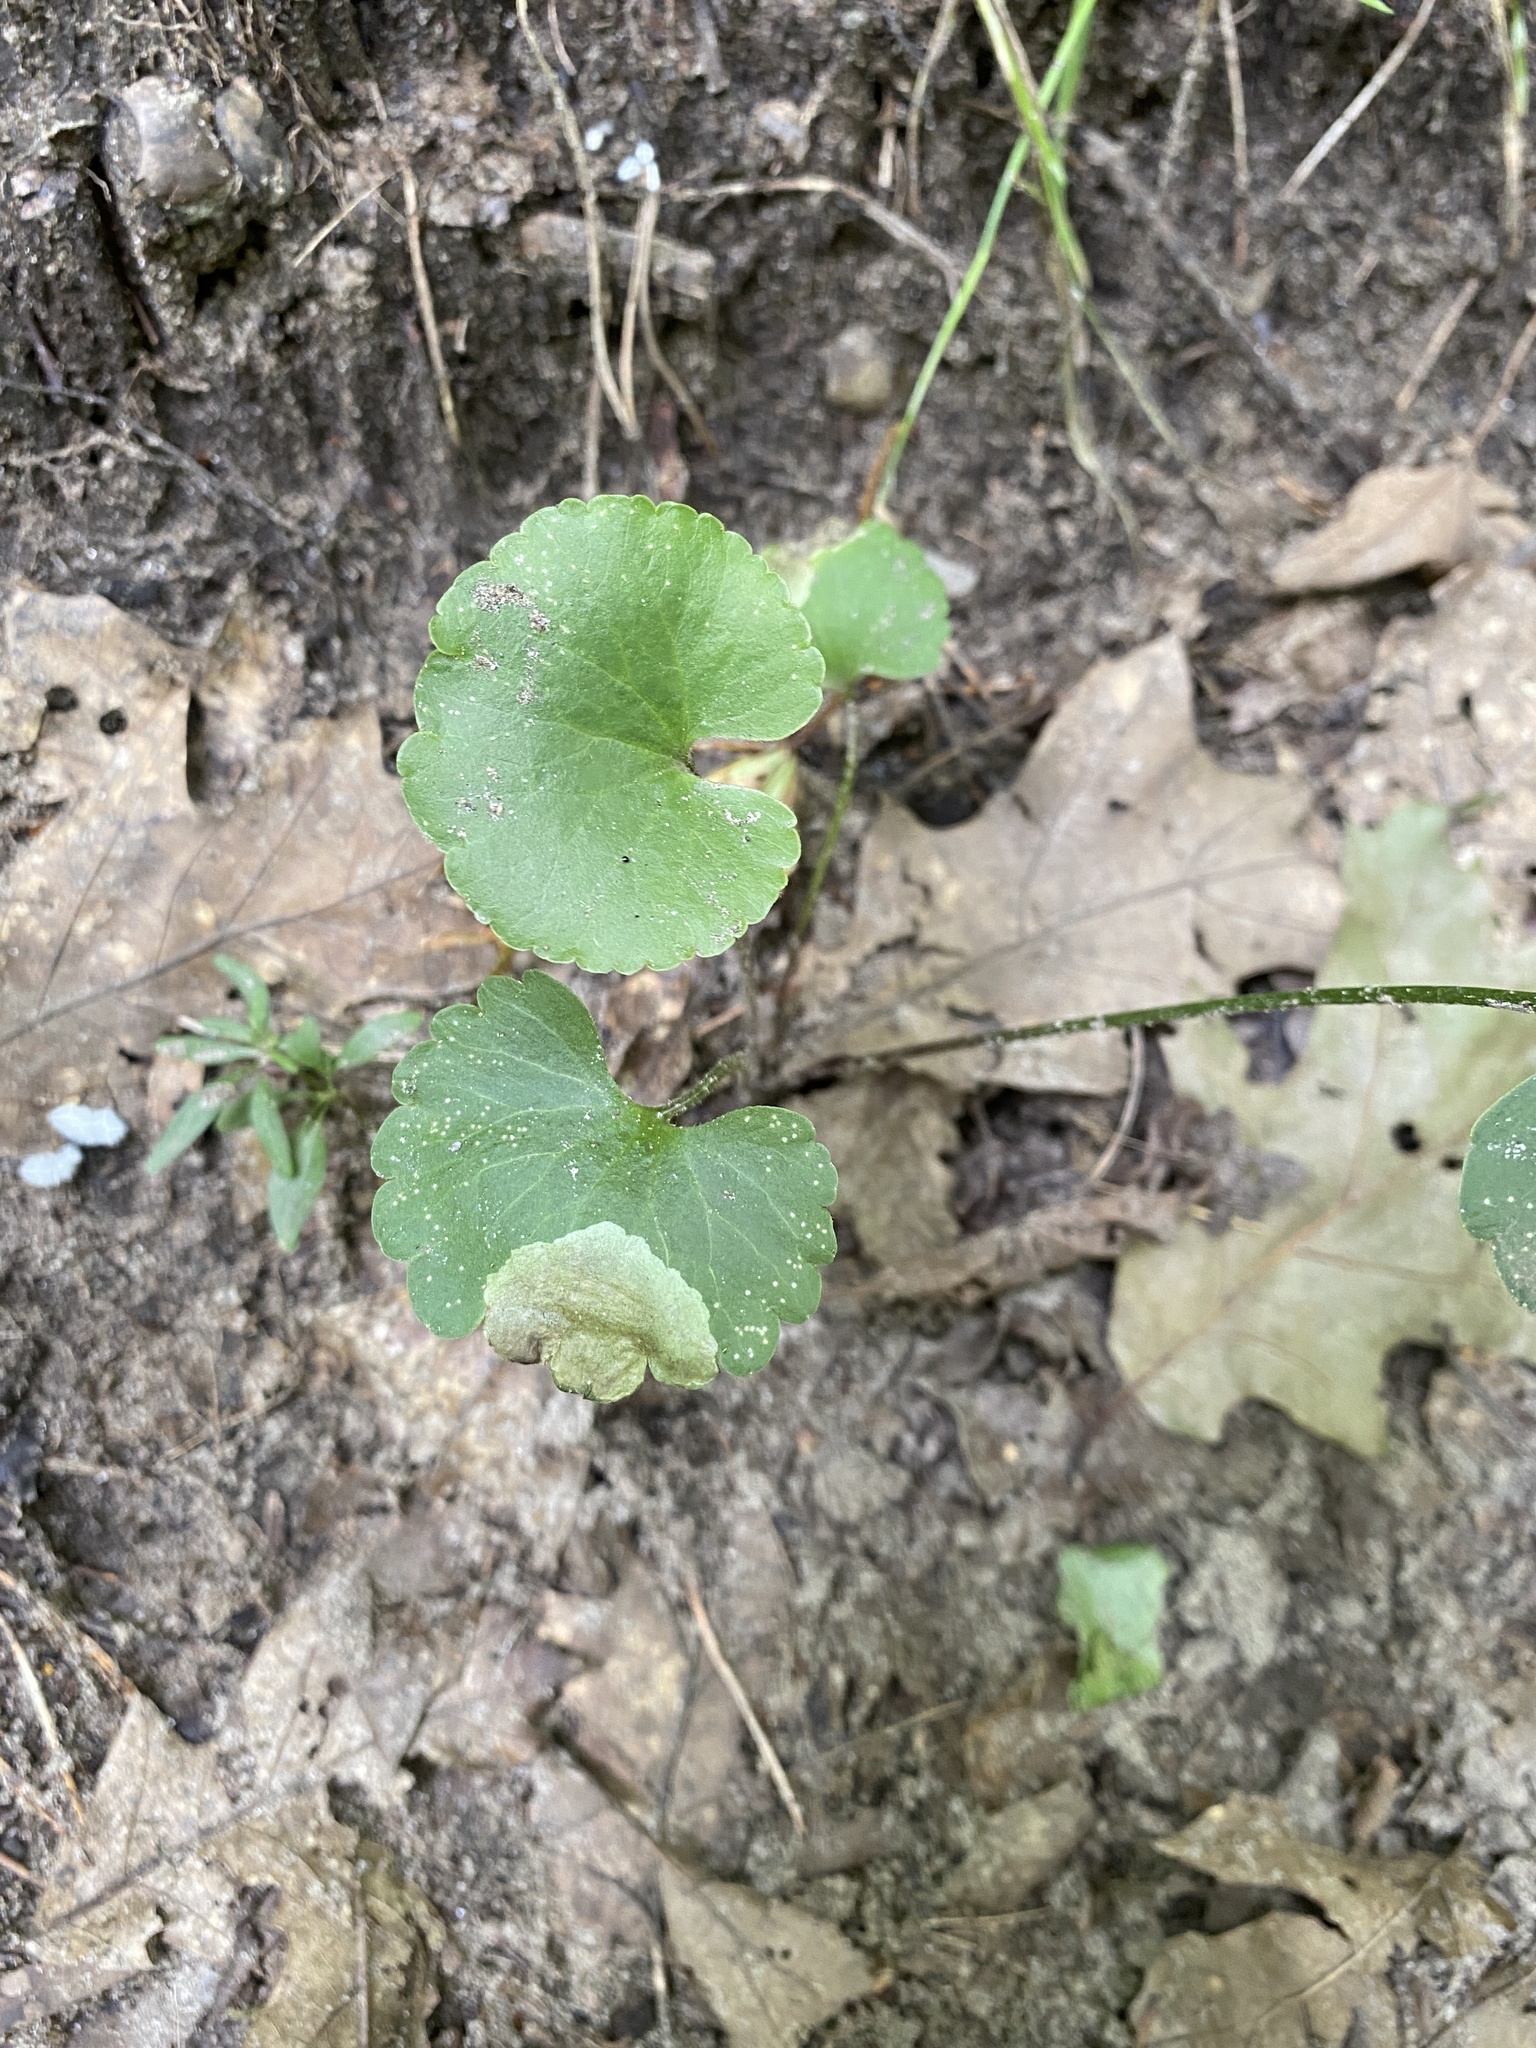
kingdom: Plantae
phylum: Tracheophyta
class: Magnoliopsida
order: Ranunculales
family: Ranunculaceae
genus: Ranunculus
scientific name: Ranunculus abortivus
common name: Early wood buttercup
